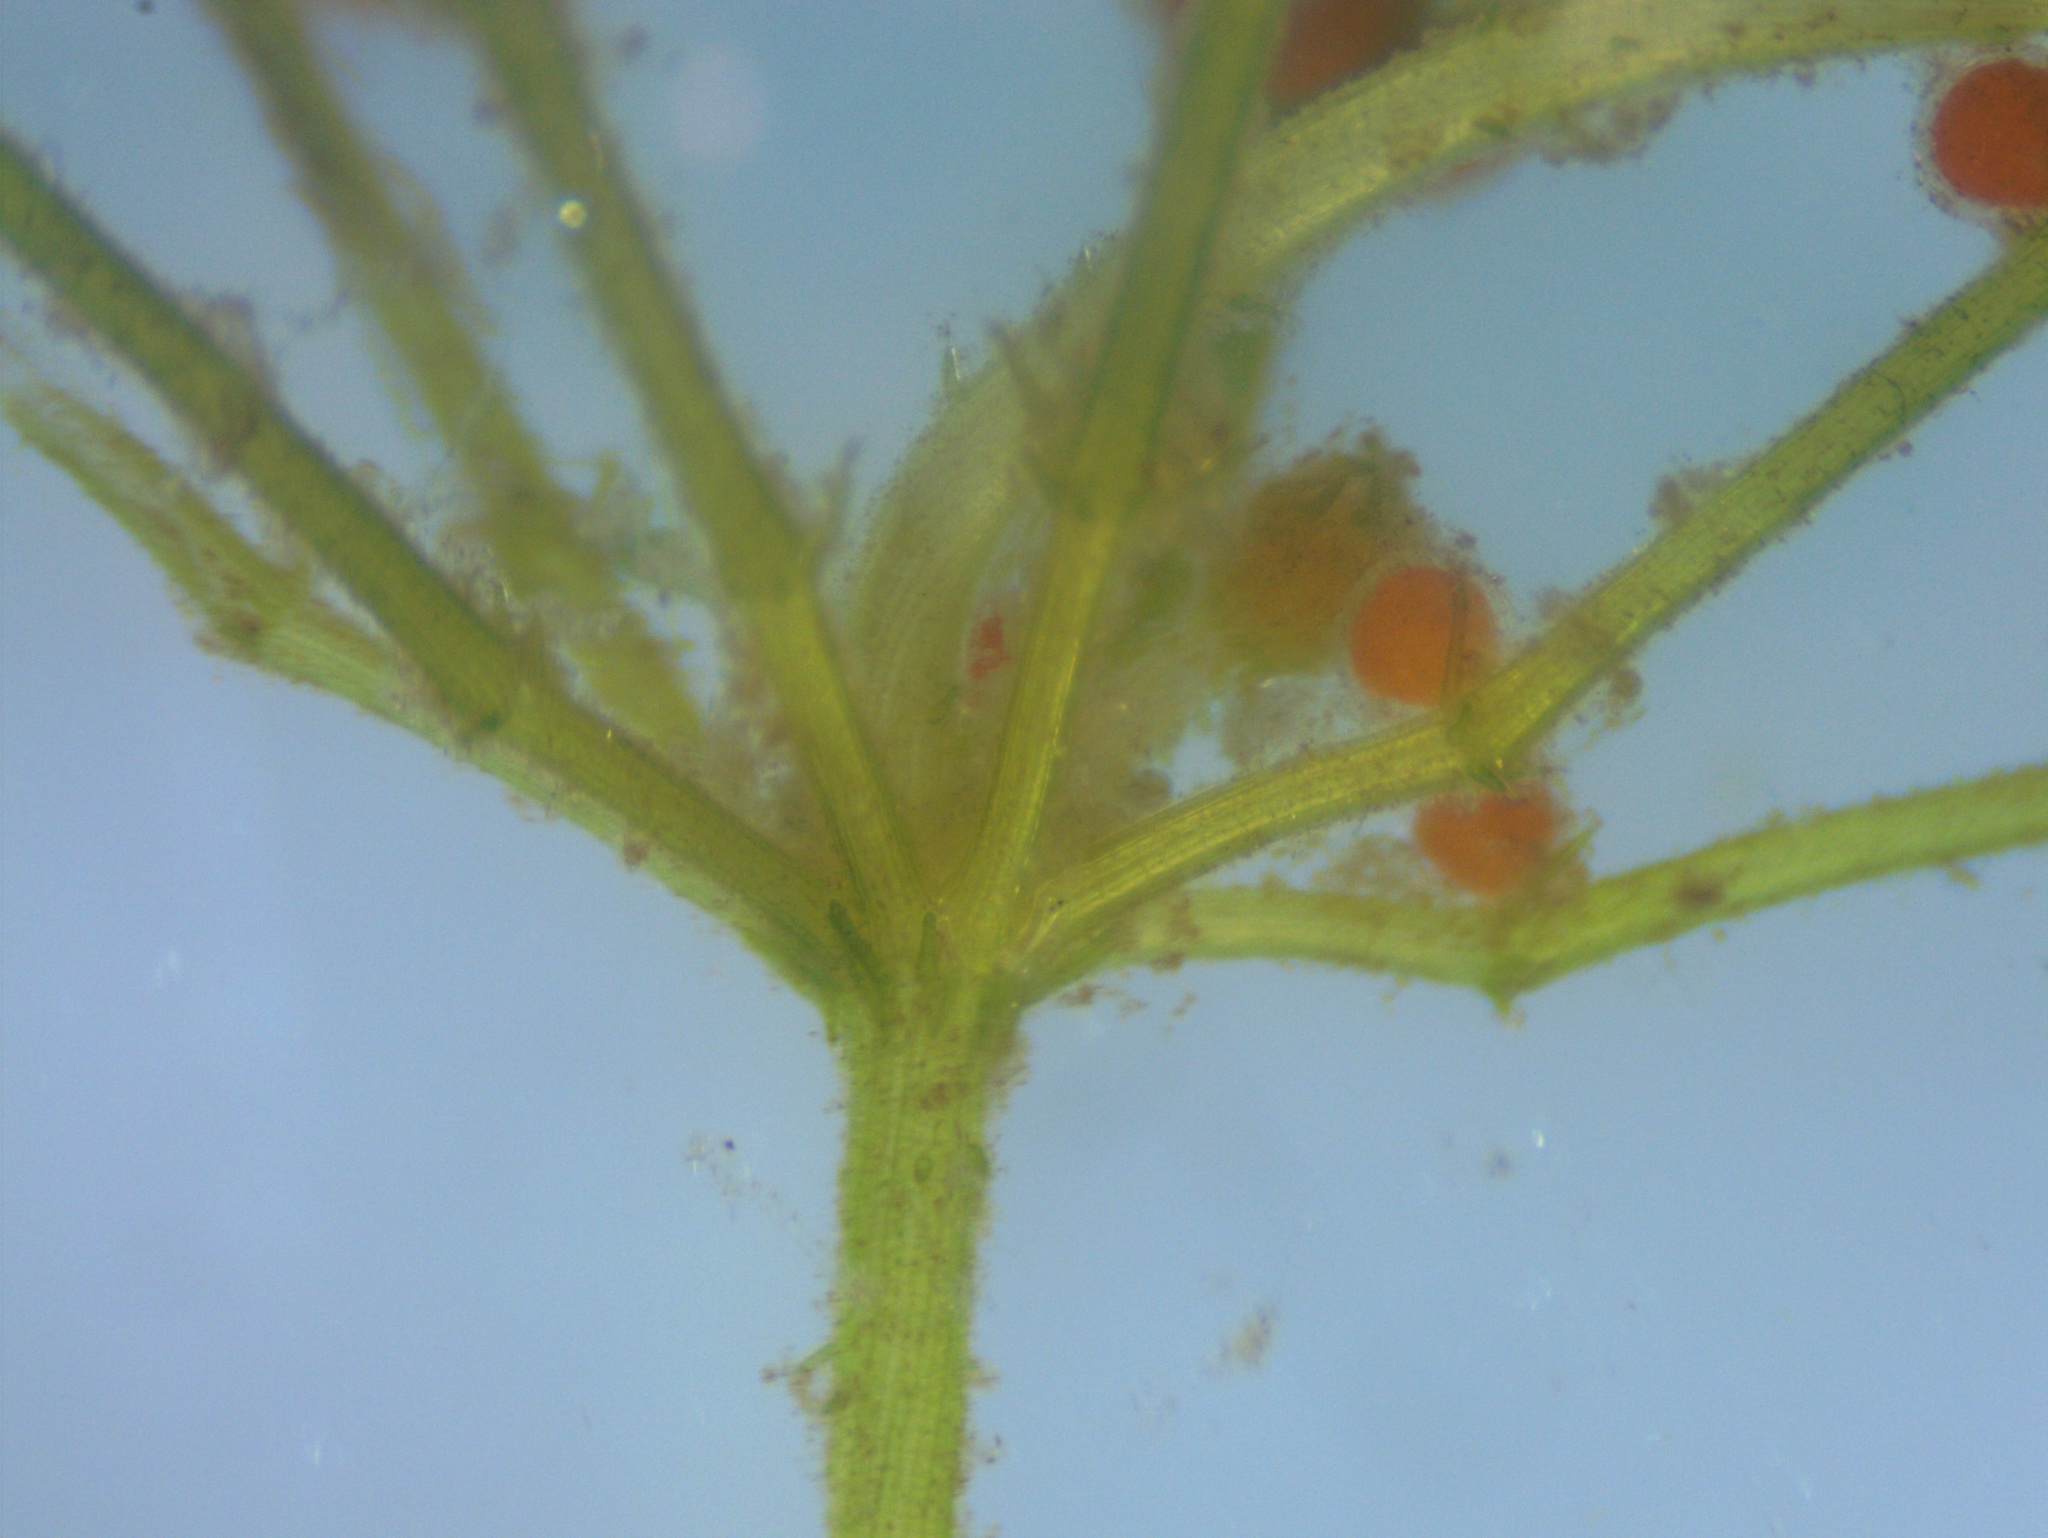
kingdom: Plantae
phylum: Charophyta
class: Charophyceae
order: Charales
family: Characeae
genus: Chara
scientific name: Chara aspera
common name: Rough stonewort
